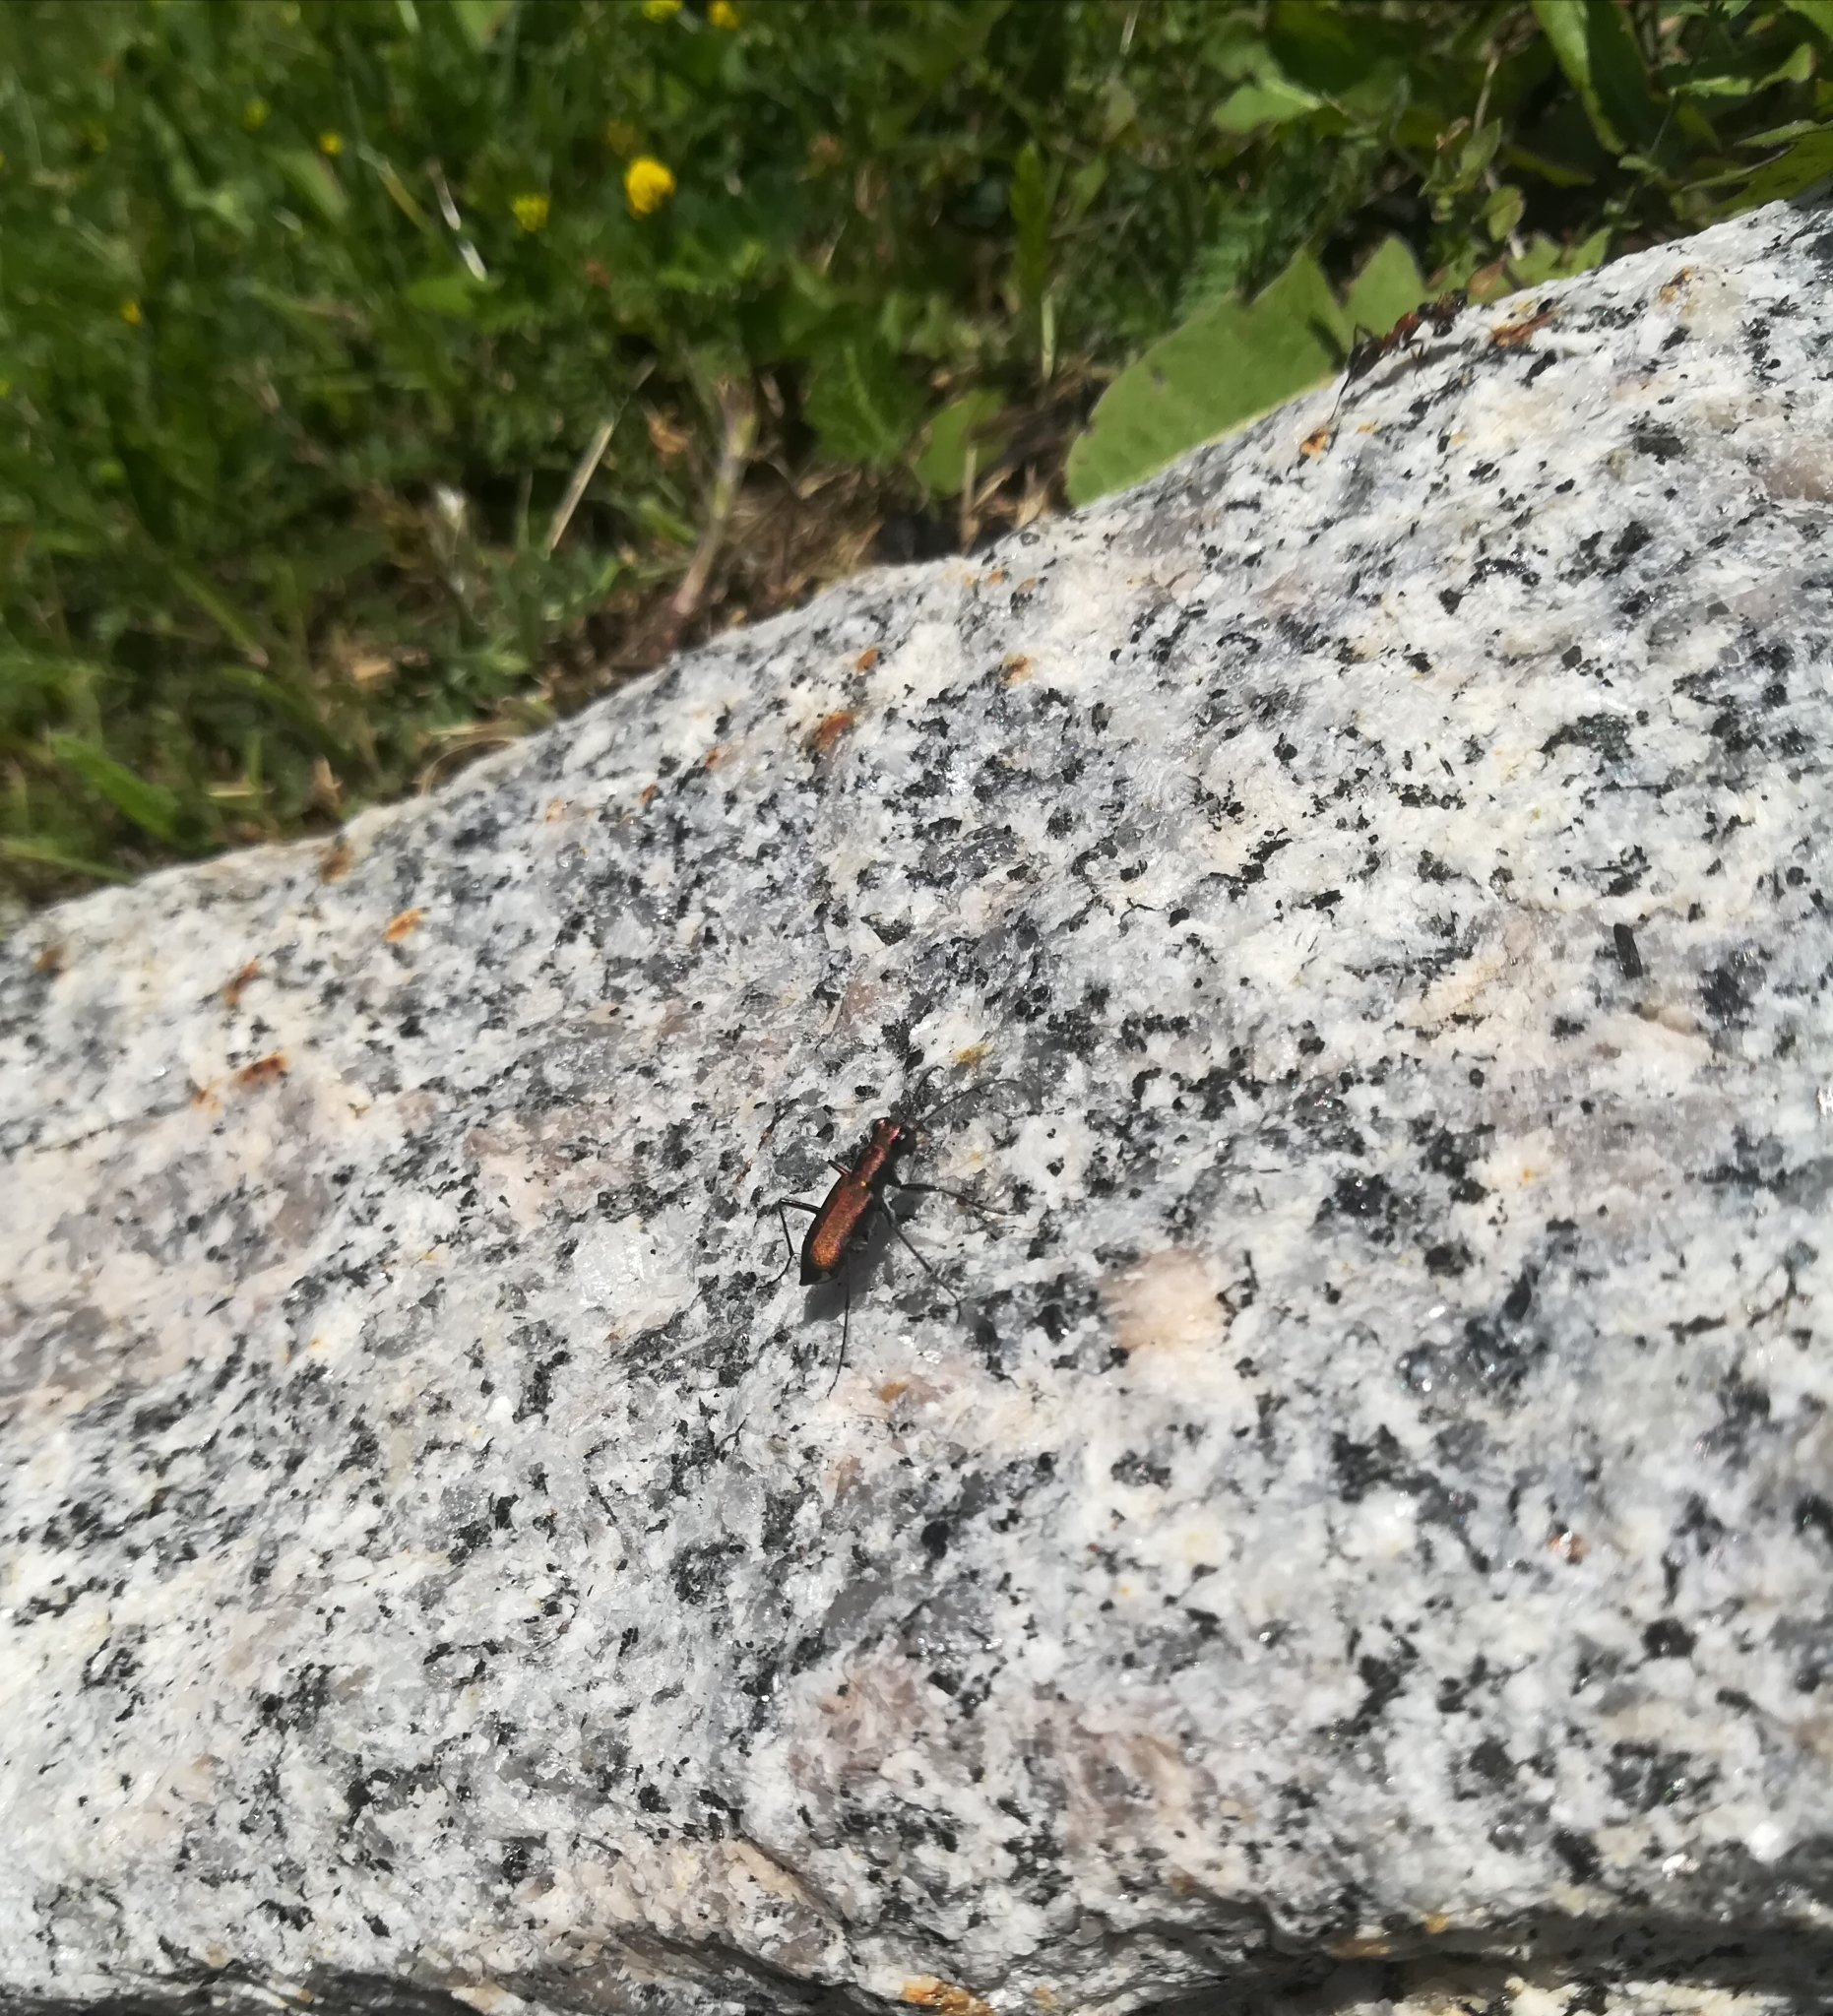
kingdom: Animalia
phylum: Arthropoda
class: Insecta
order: Coleoptera
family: Carabidae
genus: Cylindera
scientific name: Cylindera germanica
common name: Cliff tiger beetle
